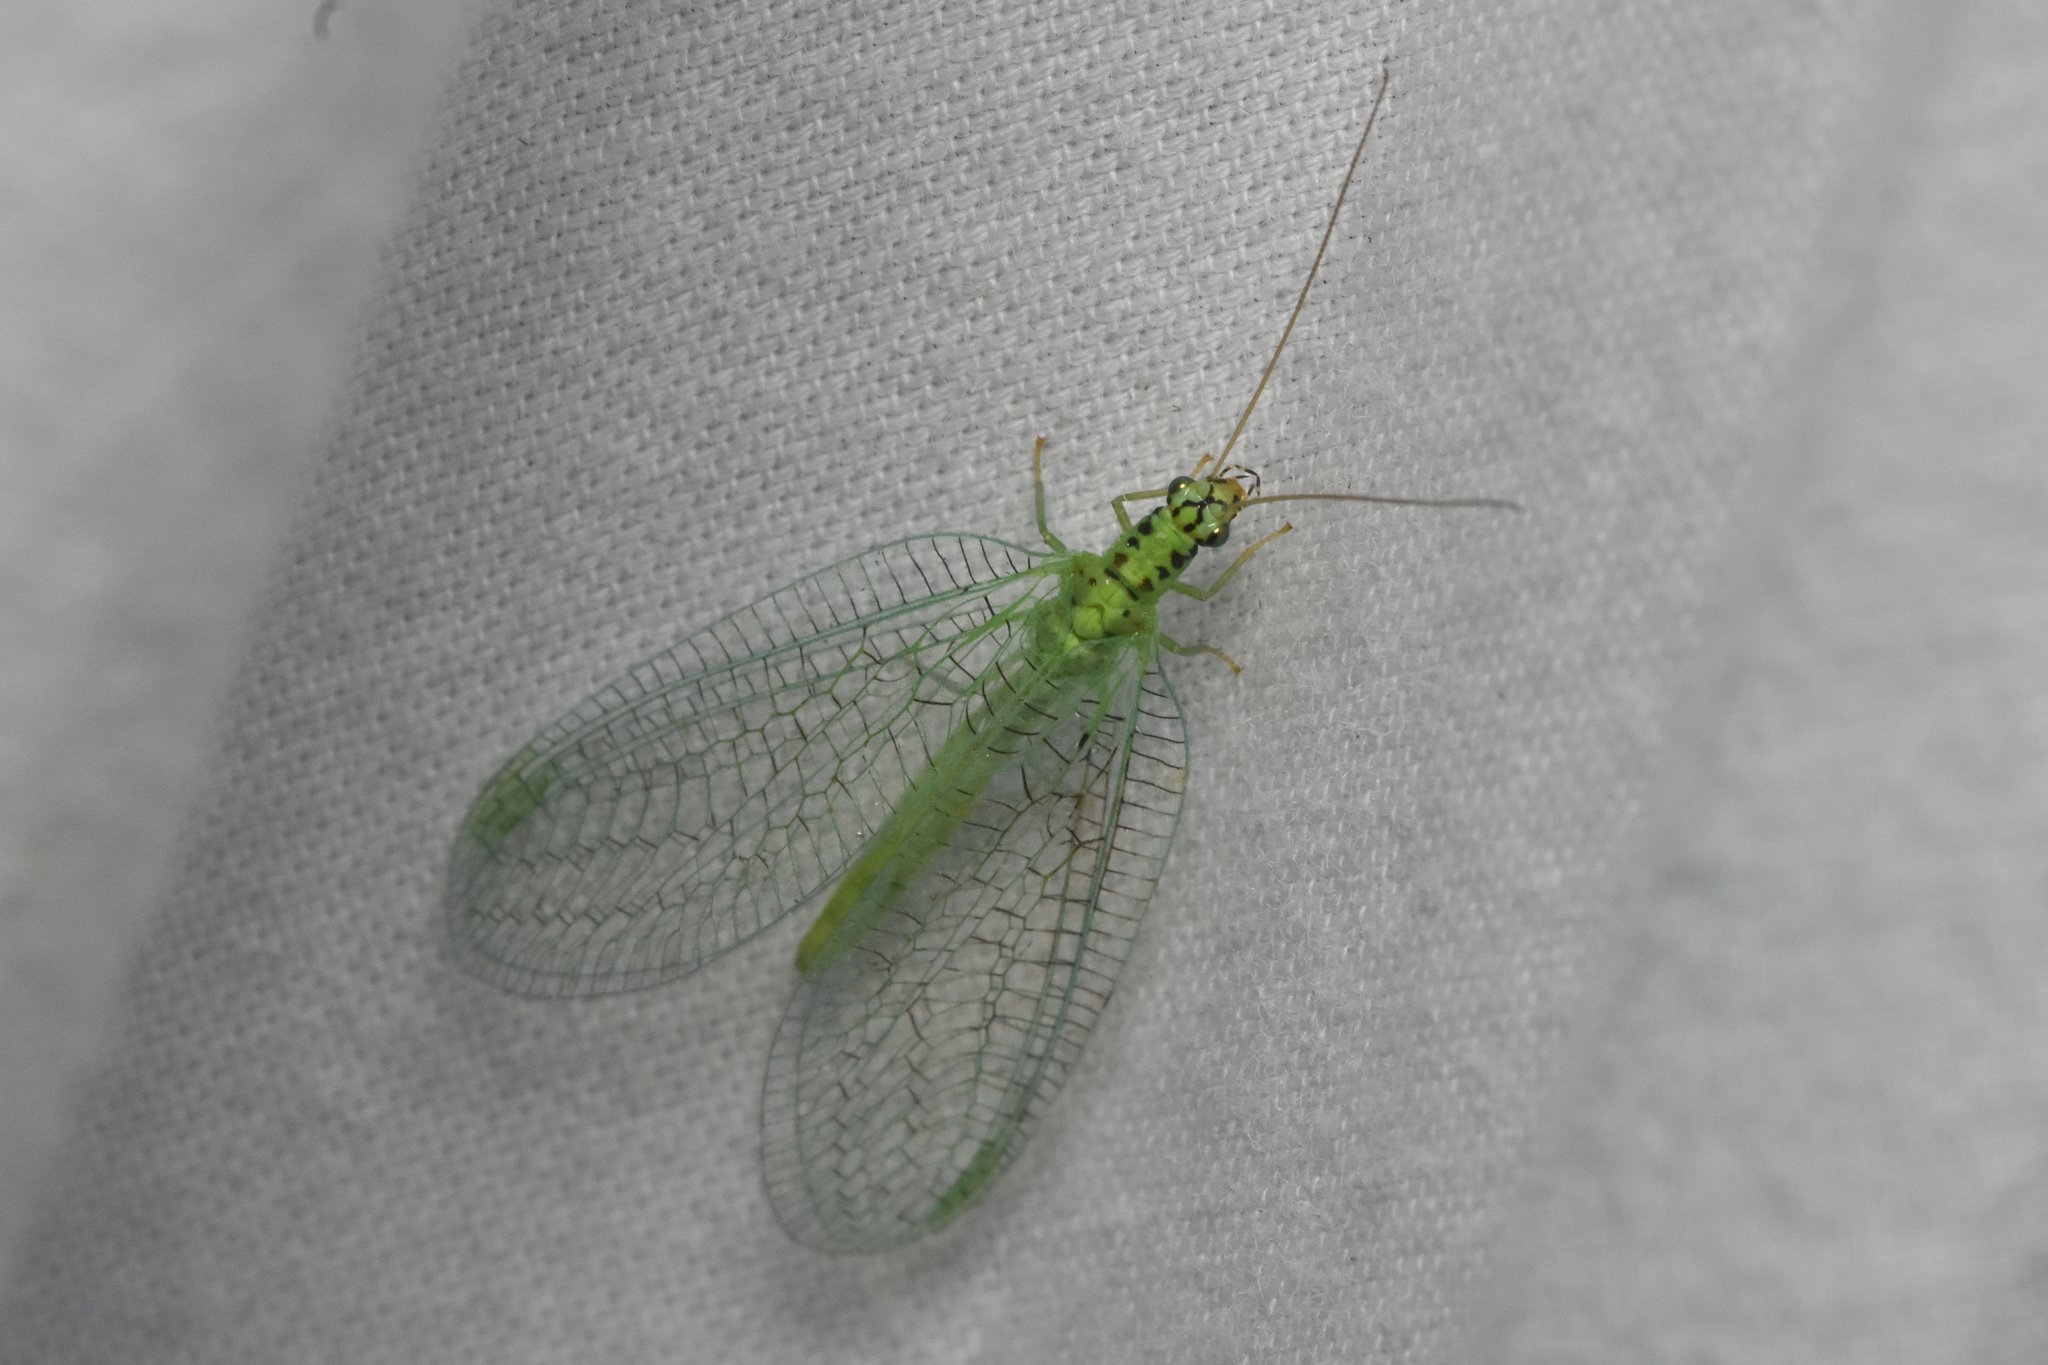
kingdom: Animalia
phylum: Arthropoda
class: Insecta
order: Neuroptera
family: Chrysopidae
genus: Chrysopa
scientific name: Chrysopa chi
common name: X-marked green lacewing
